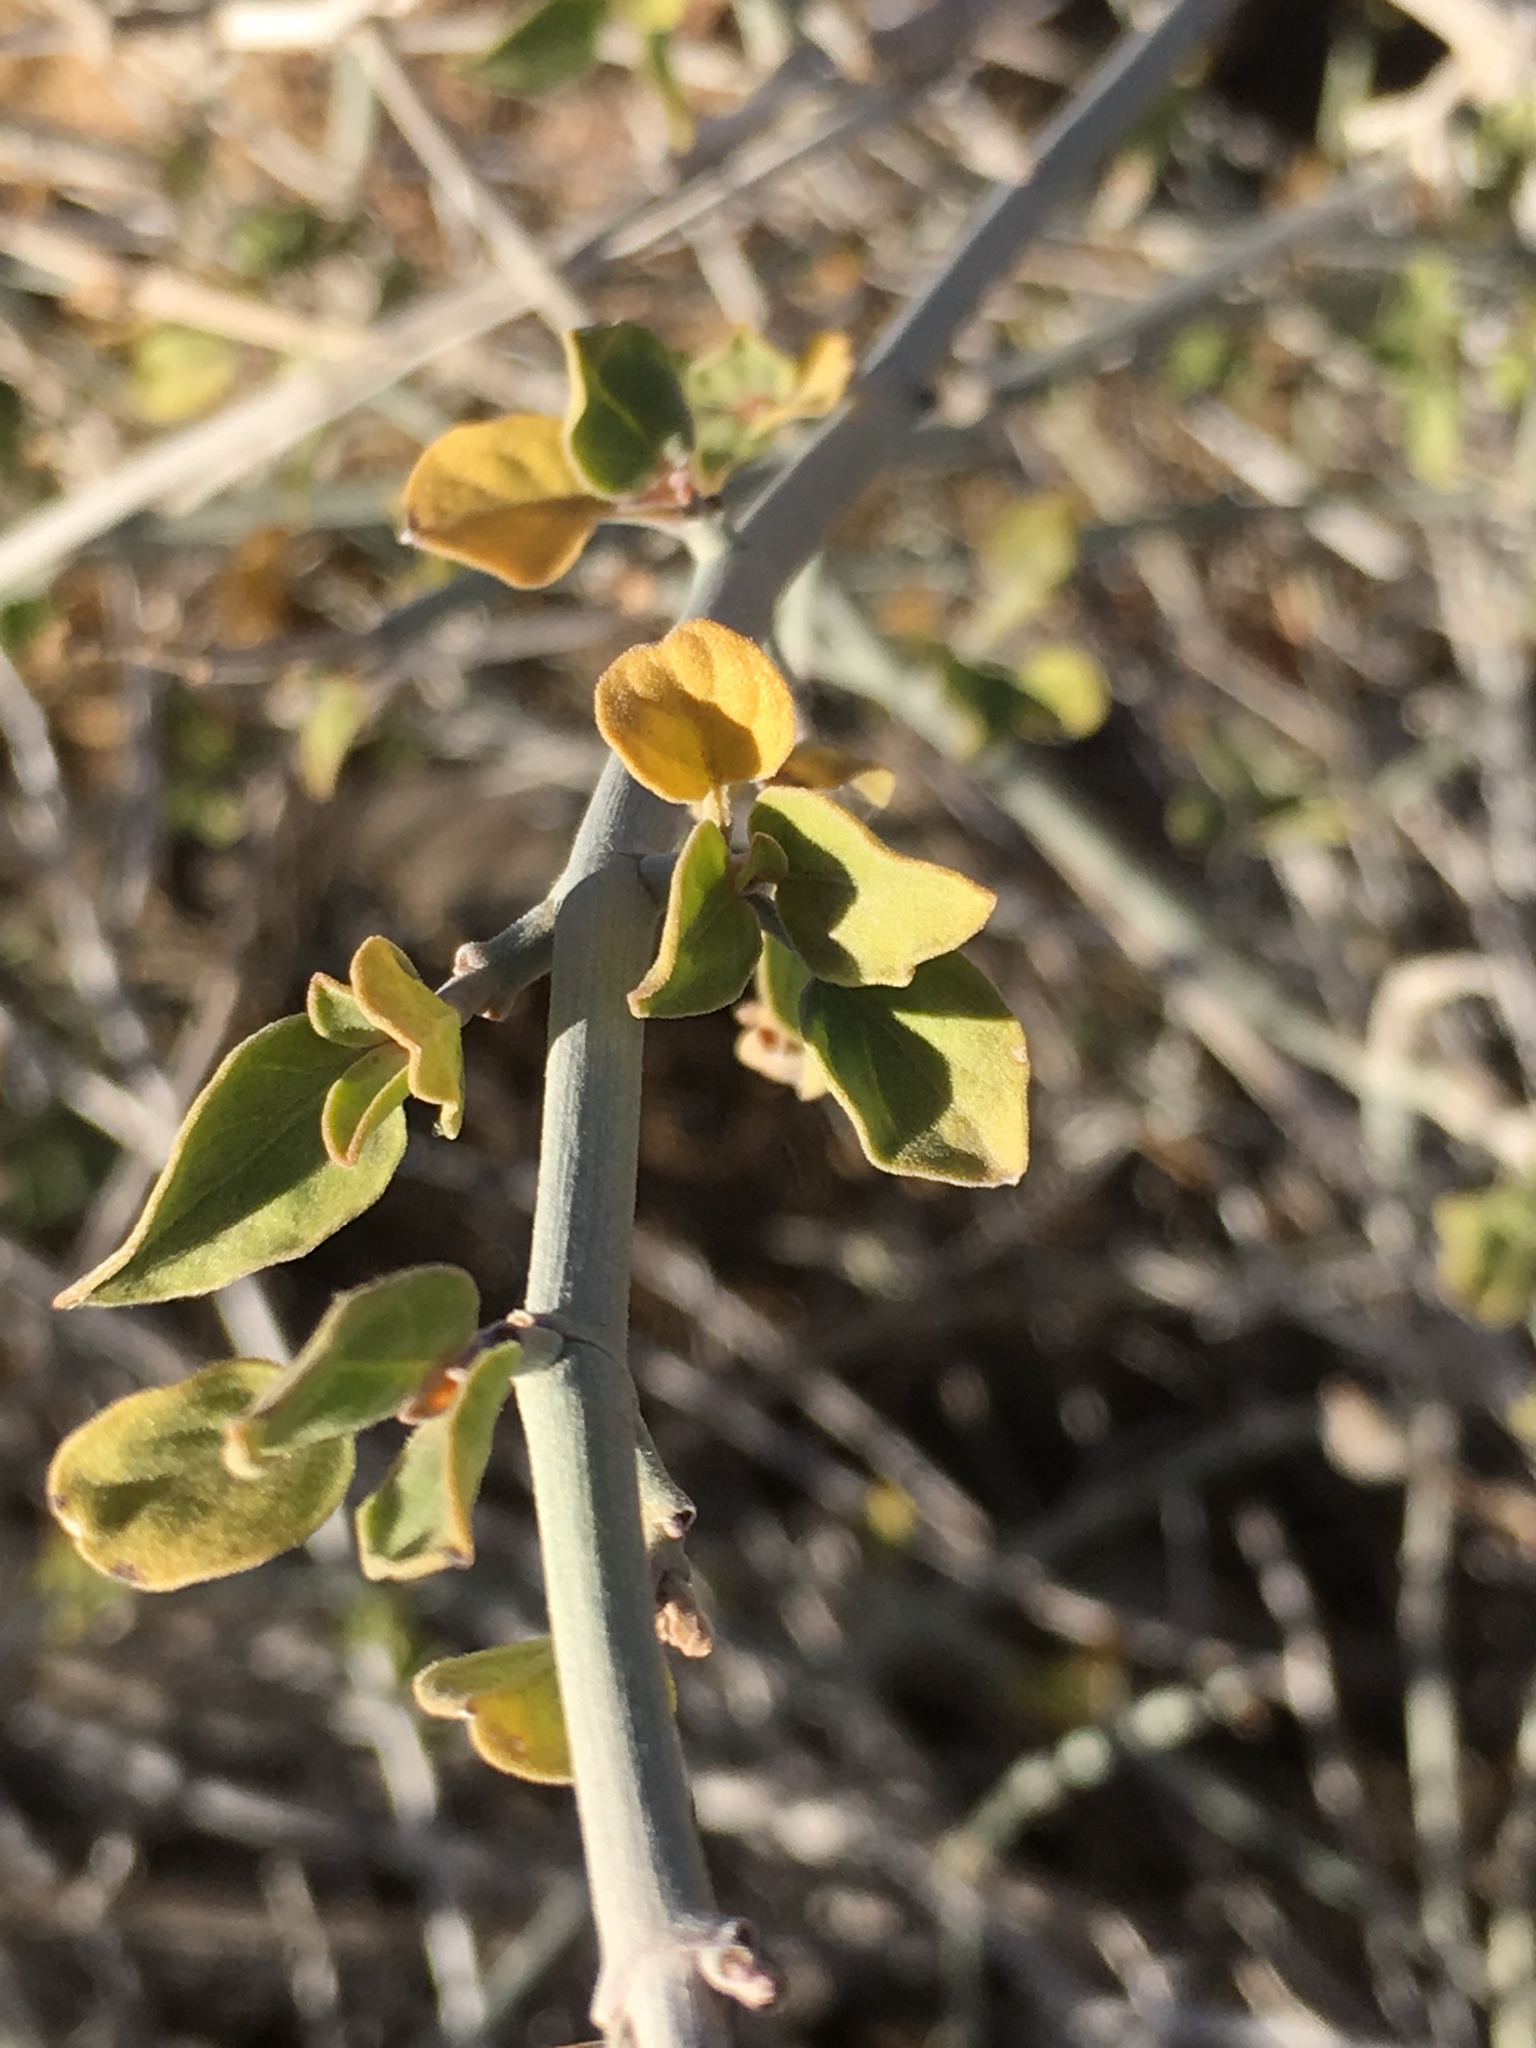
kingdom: Plantae
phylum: Tracheophyta
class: Magnoliopsida
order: Lamiales
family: Acanthaceae
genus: Justicia
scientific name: Justicia californica
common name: Chuparosa-honeysuckle
